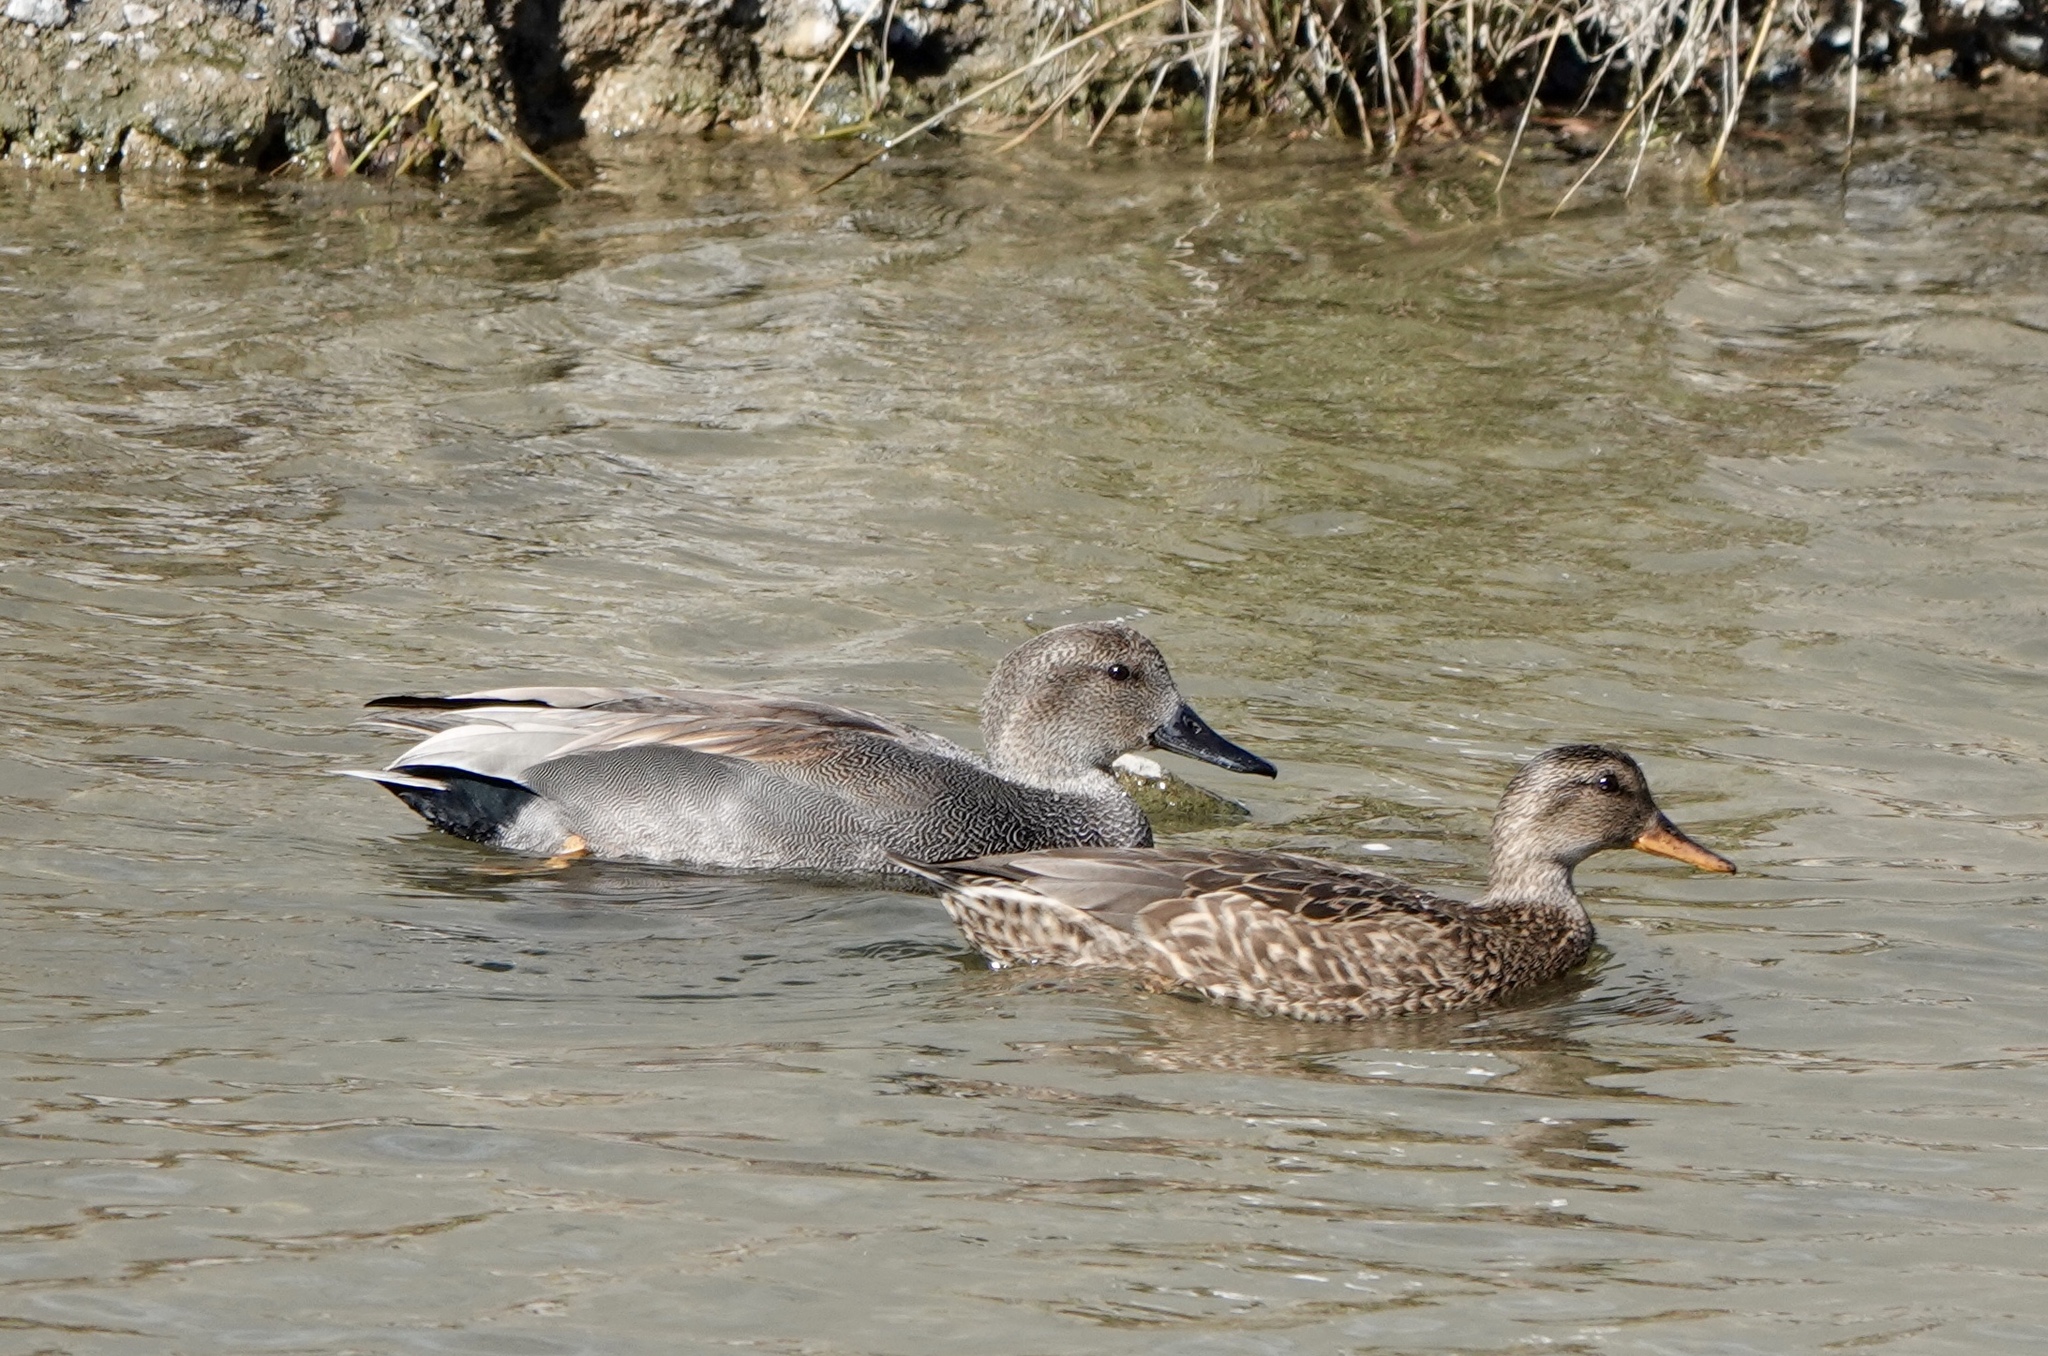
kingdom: Animalia
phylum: Chordata
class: Aves
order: Anseriformes
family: Anatidae
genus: Mareca
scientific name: Mareca strepera
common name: Gadwall
